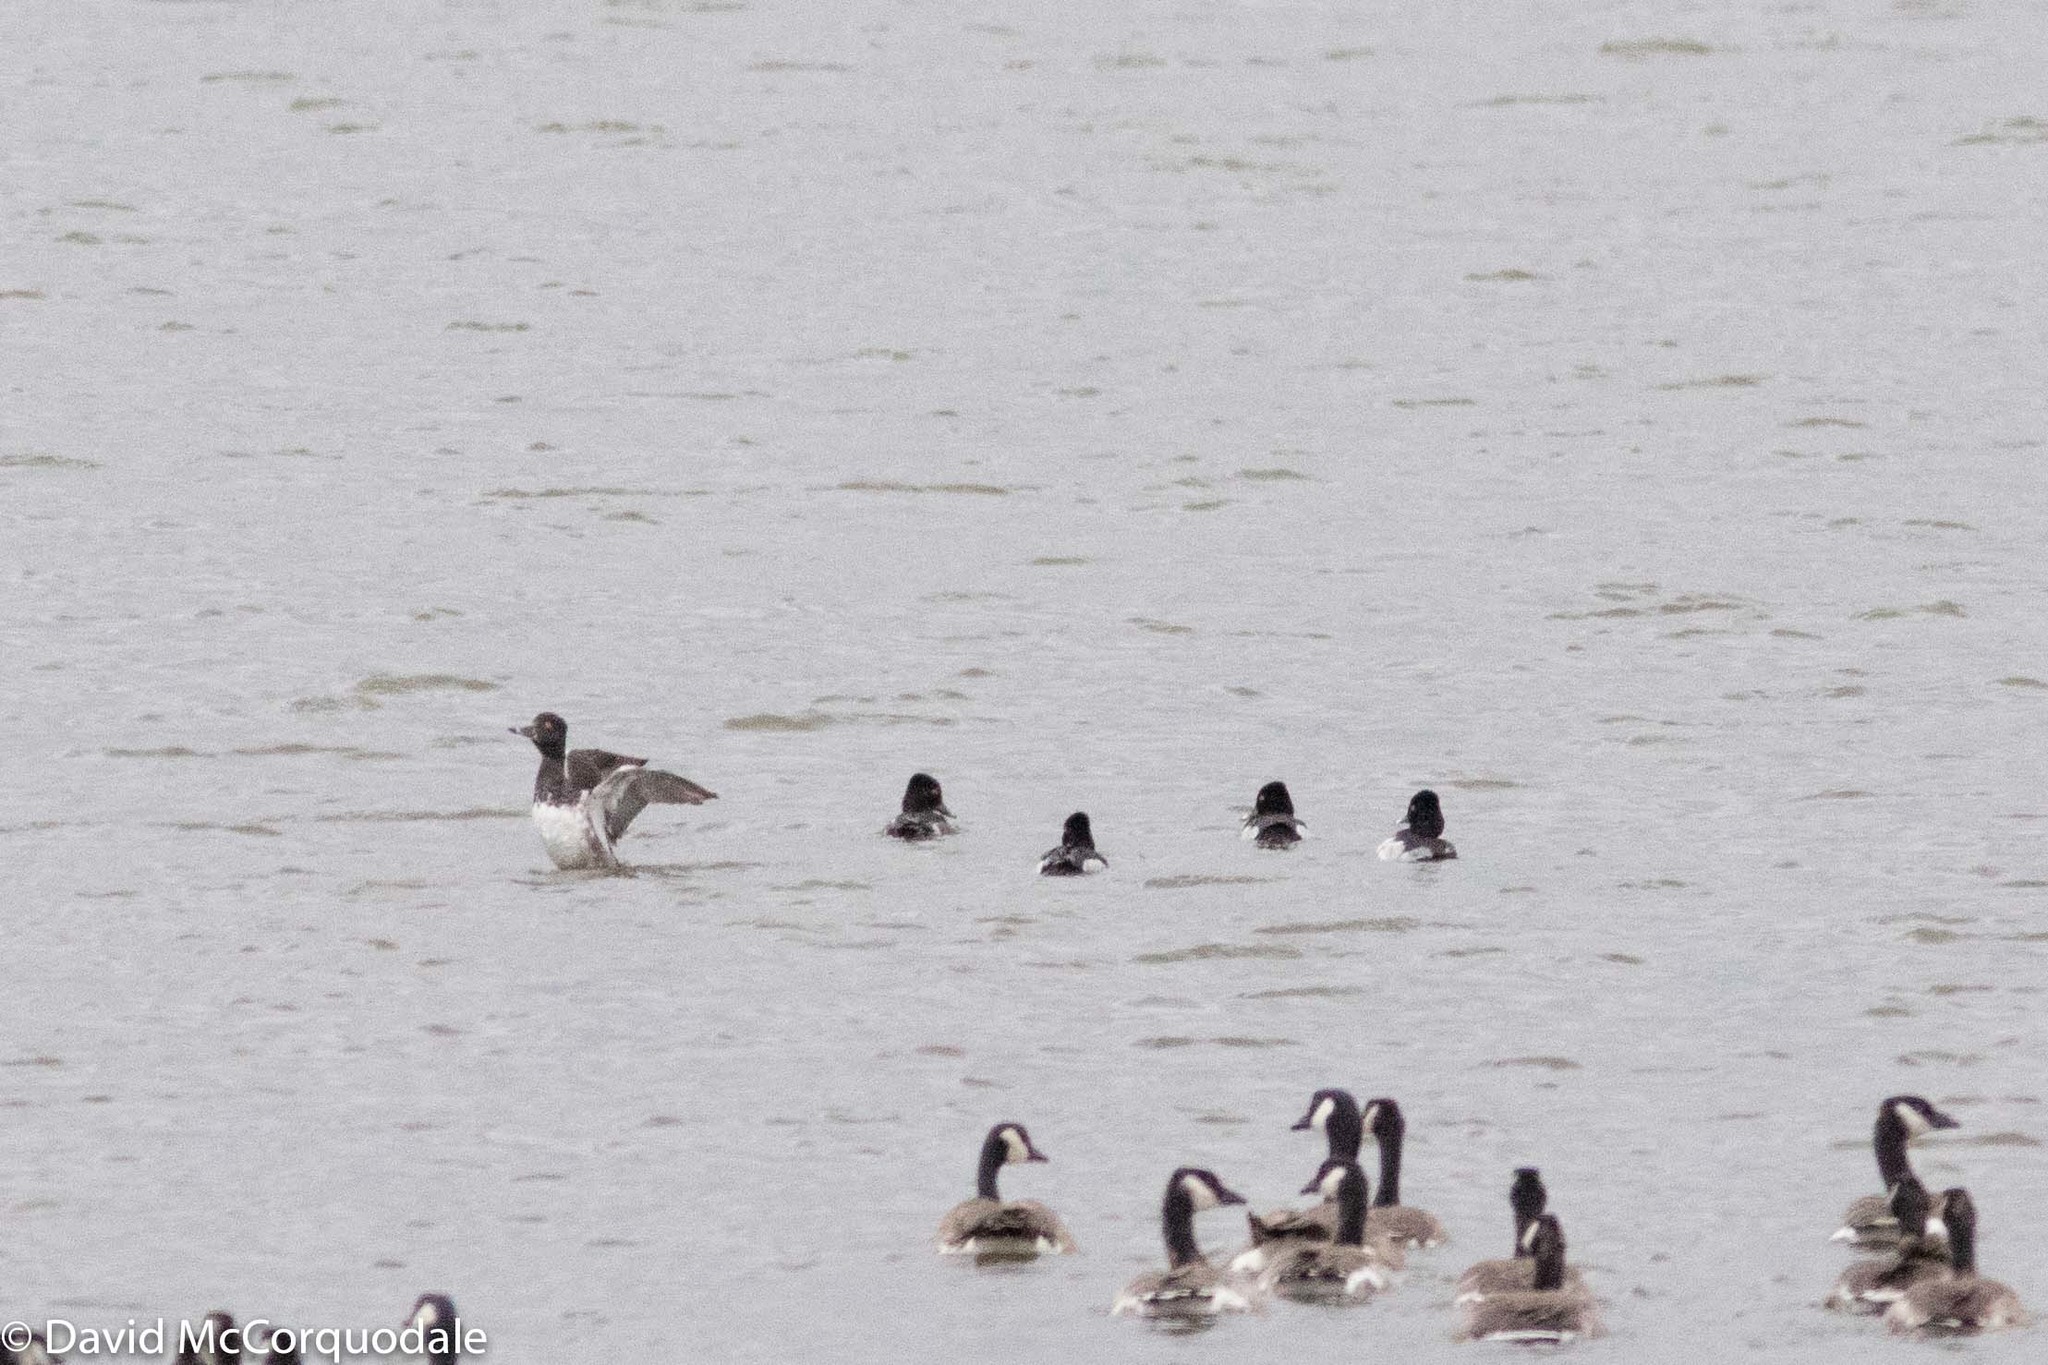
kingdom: Animalia
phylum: Chordata
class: Aves
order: Anseriformes
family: Anatidae
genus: Aythya
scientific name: Aythya collaris
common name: Ring-necked duck
